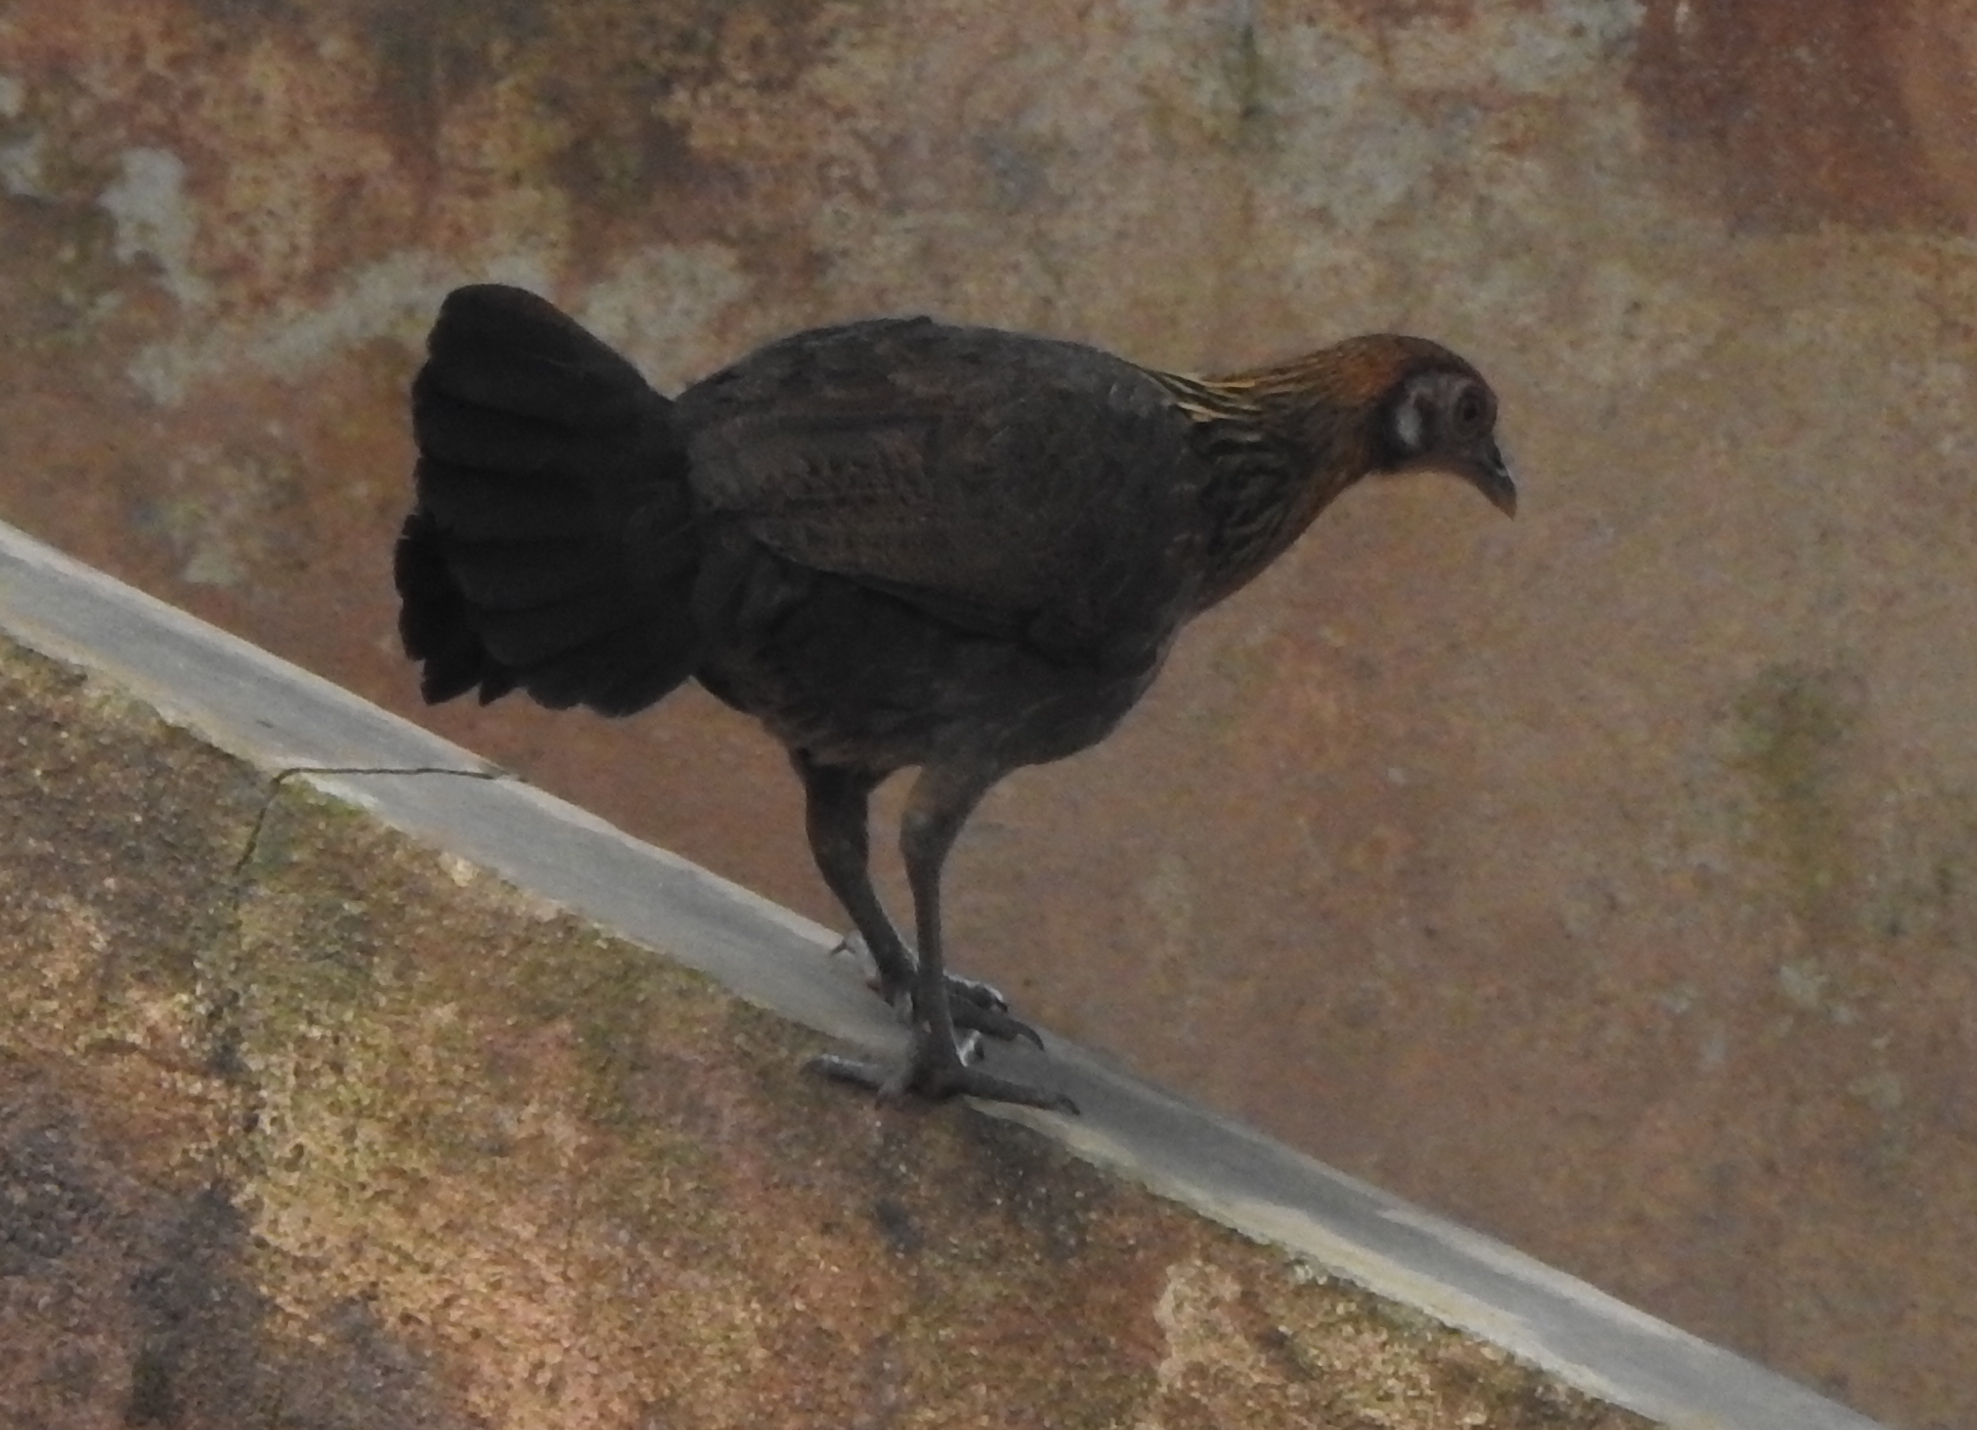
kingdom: Animalia
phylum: Chordata
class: Aves
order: Galliformes
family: Phasianidae
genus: Gallus
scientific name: Gallus gallus
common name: Red junglefowl
